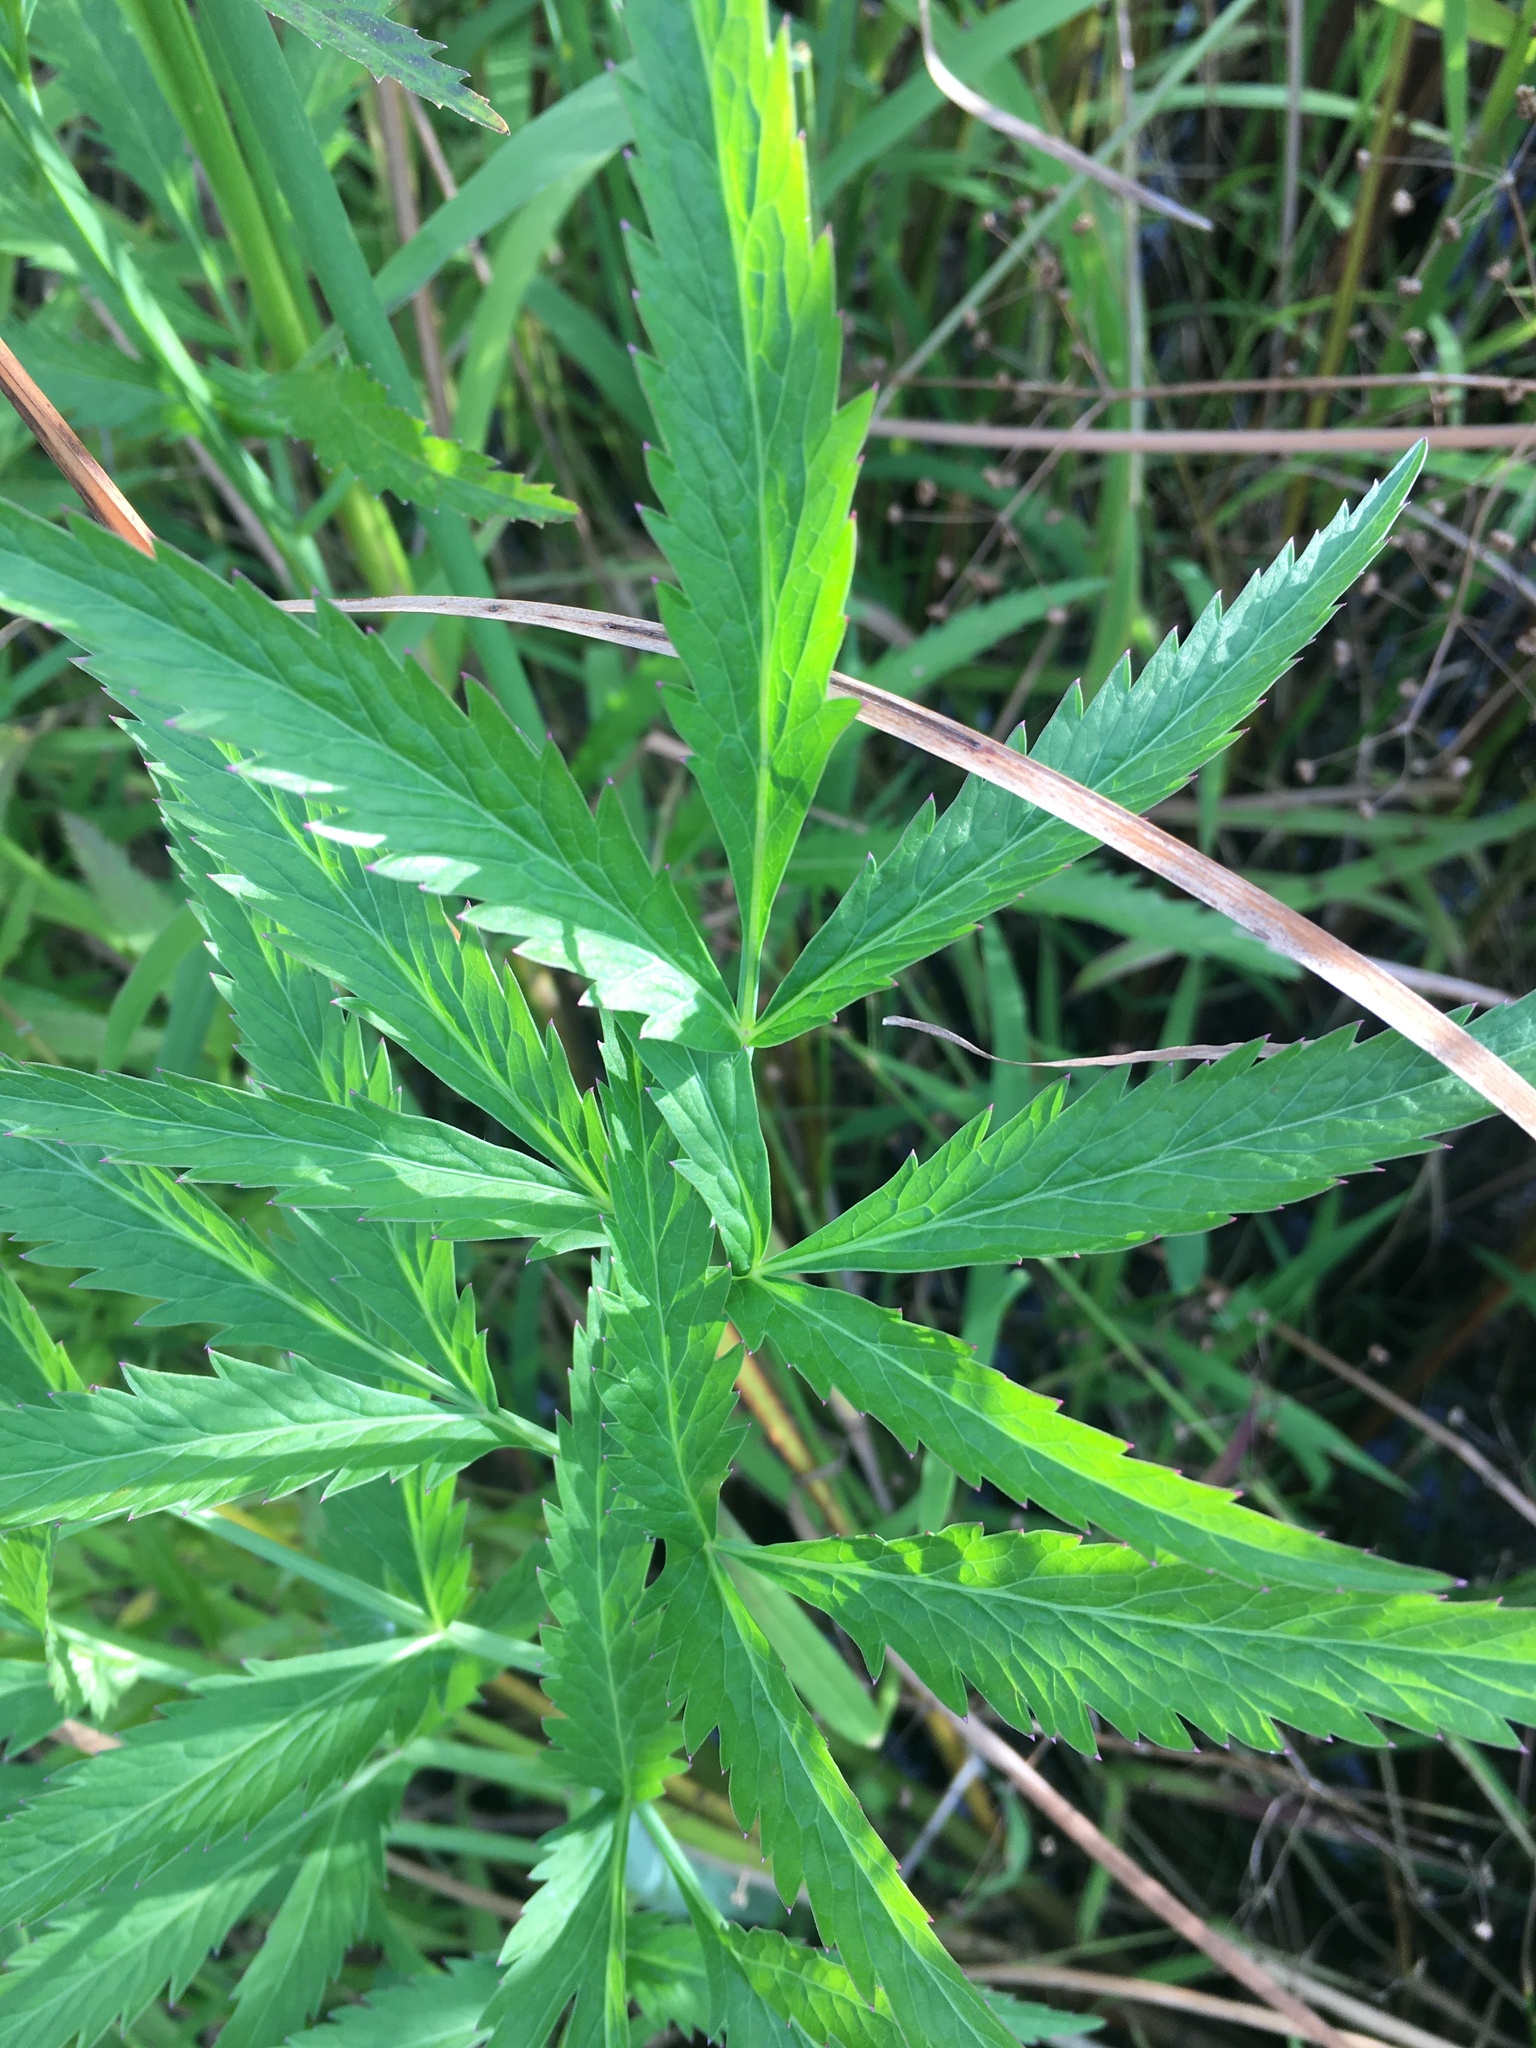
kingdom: Plantae
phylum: Tracheophyta
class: Magnoliopsida
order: Apiales
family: Apiaceae
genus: Cicuta
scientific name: Cicuta virosa
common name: Cowbane
